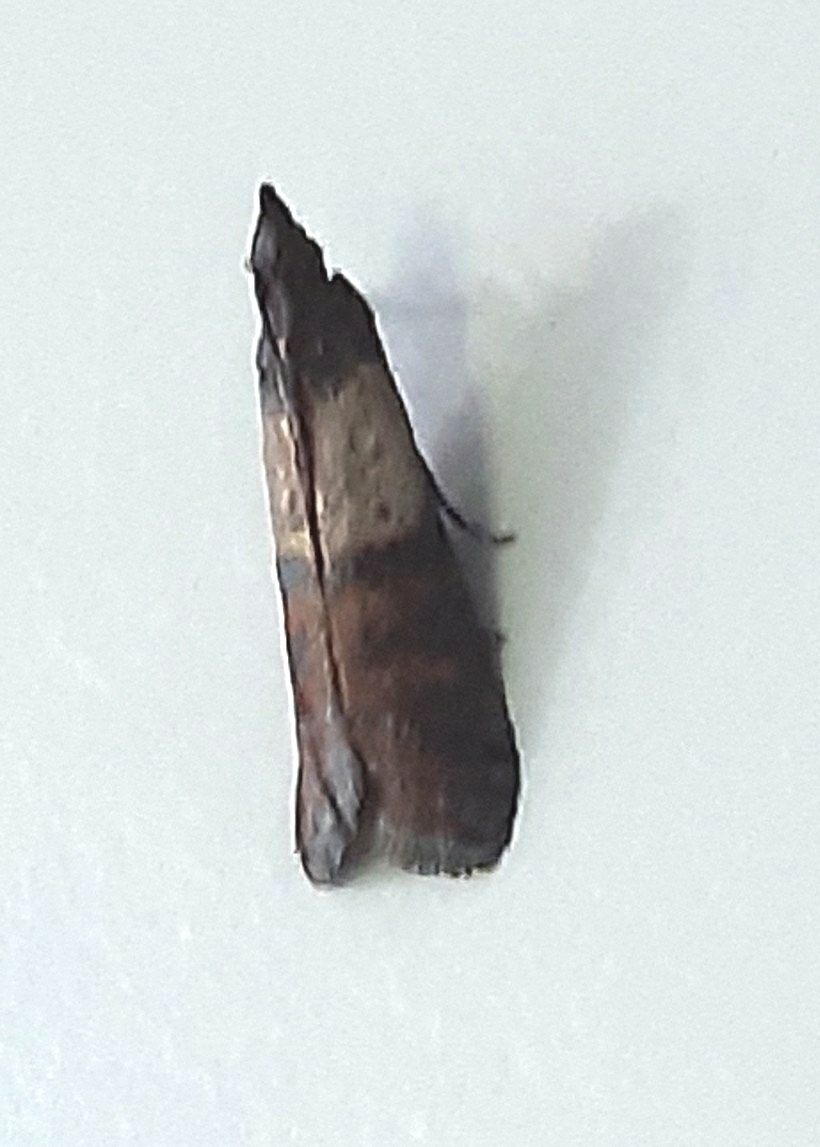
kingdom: Animalia
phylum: Arthropoda
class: Insecta
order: Lepidoptera
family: Pyralidae
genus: Plodia
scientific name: Plodia interpunctella
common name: Indian meal moth
